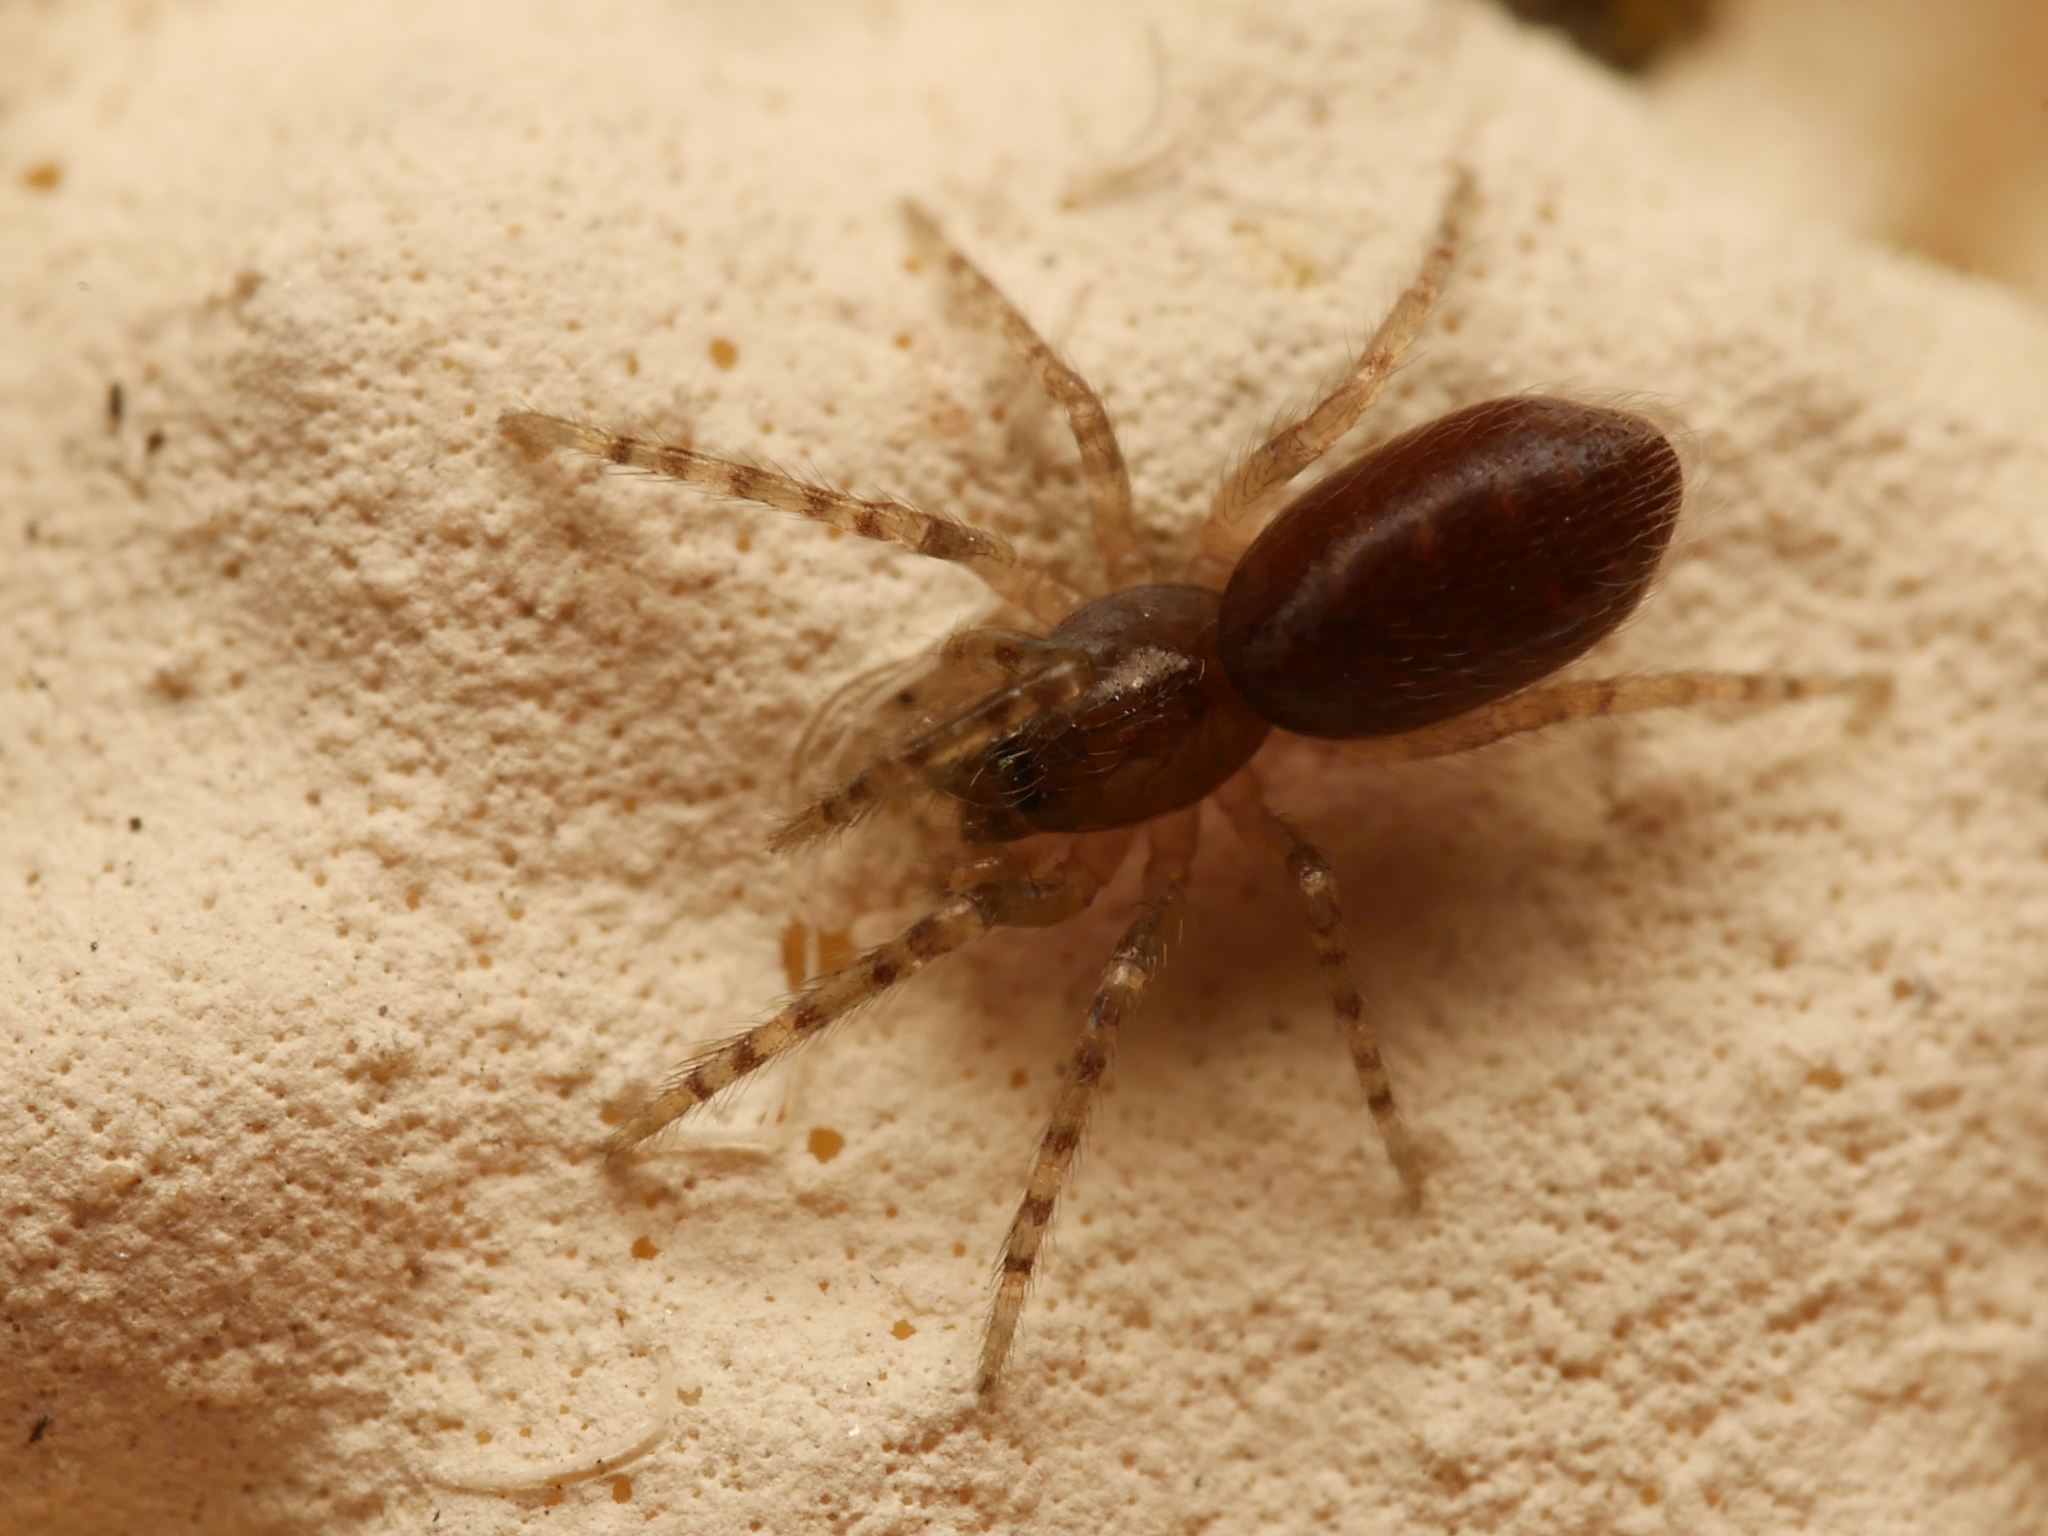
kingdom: Animalia
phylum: Arthropoda
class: Arachnida
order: Araneae
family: Segestriidae
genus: Segestria
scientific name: Segestria senoculata
